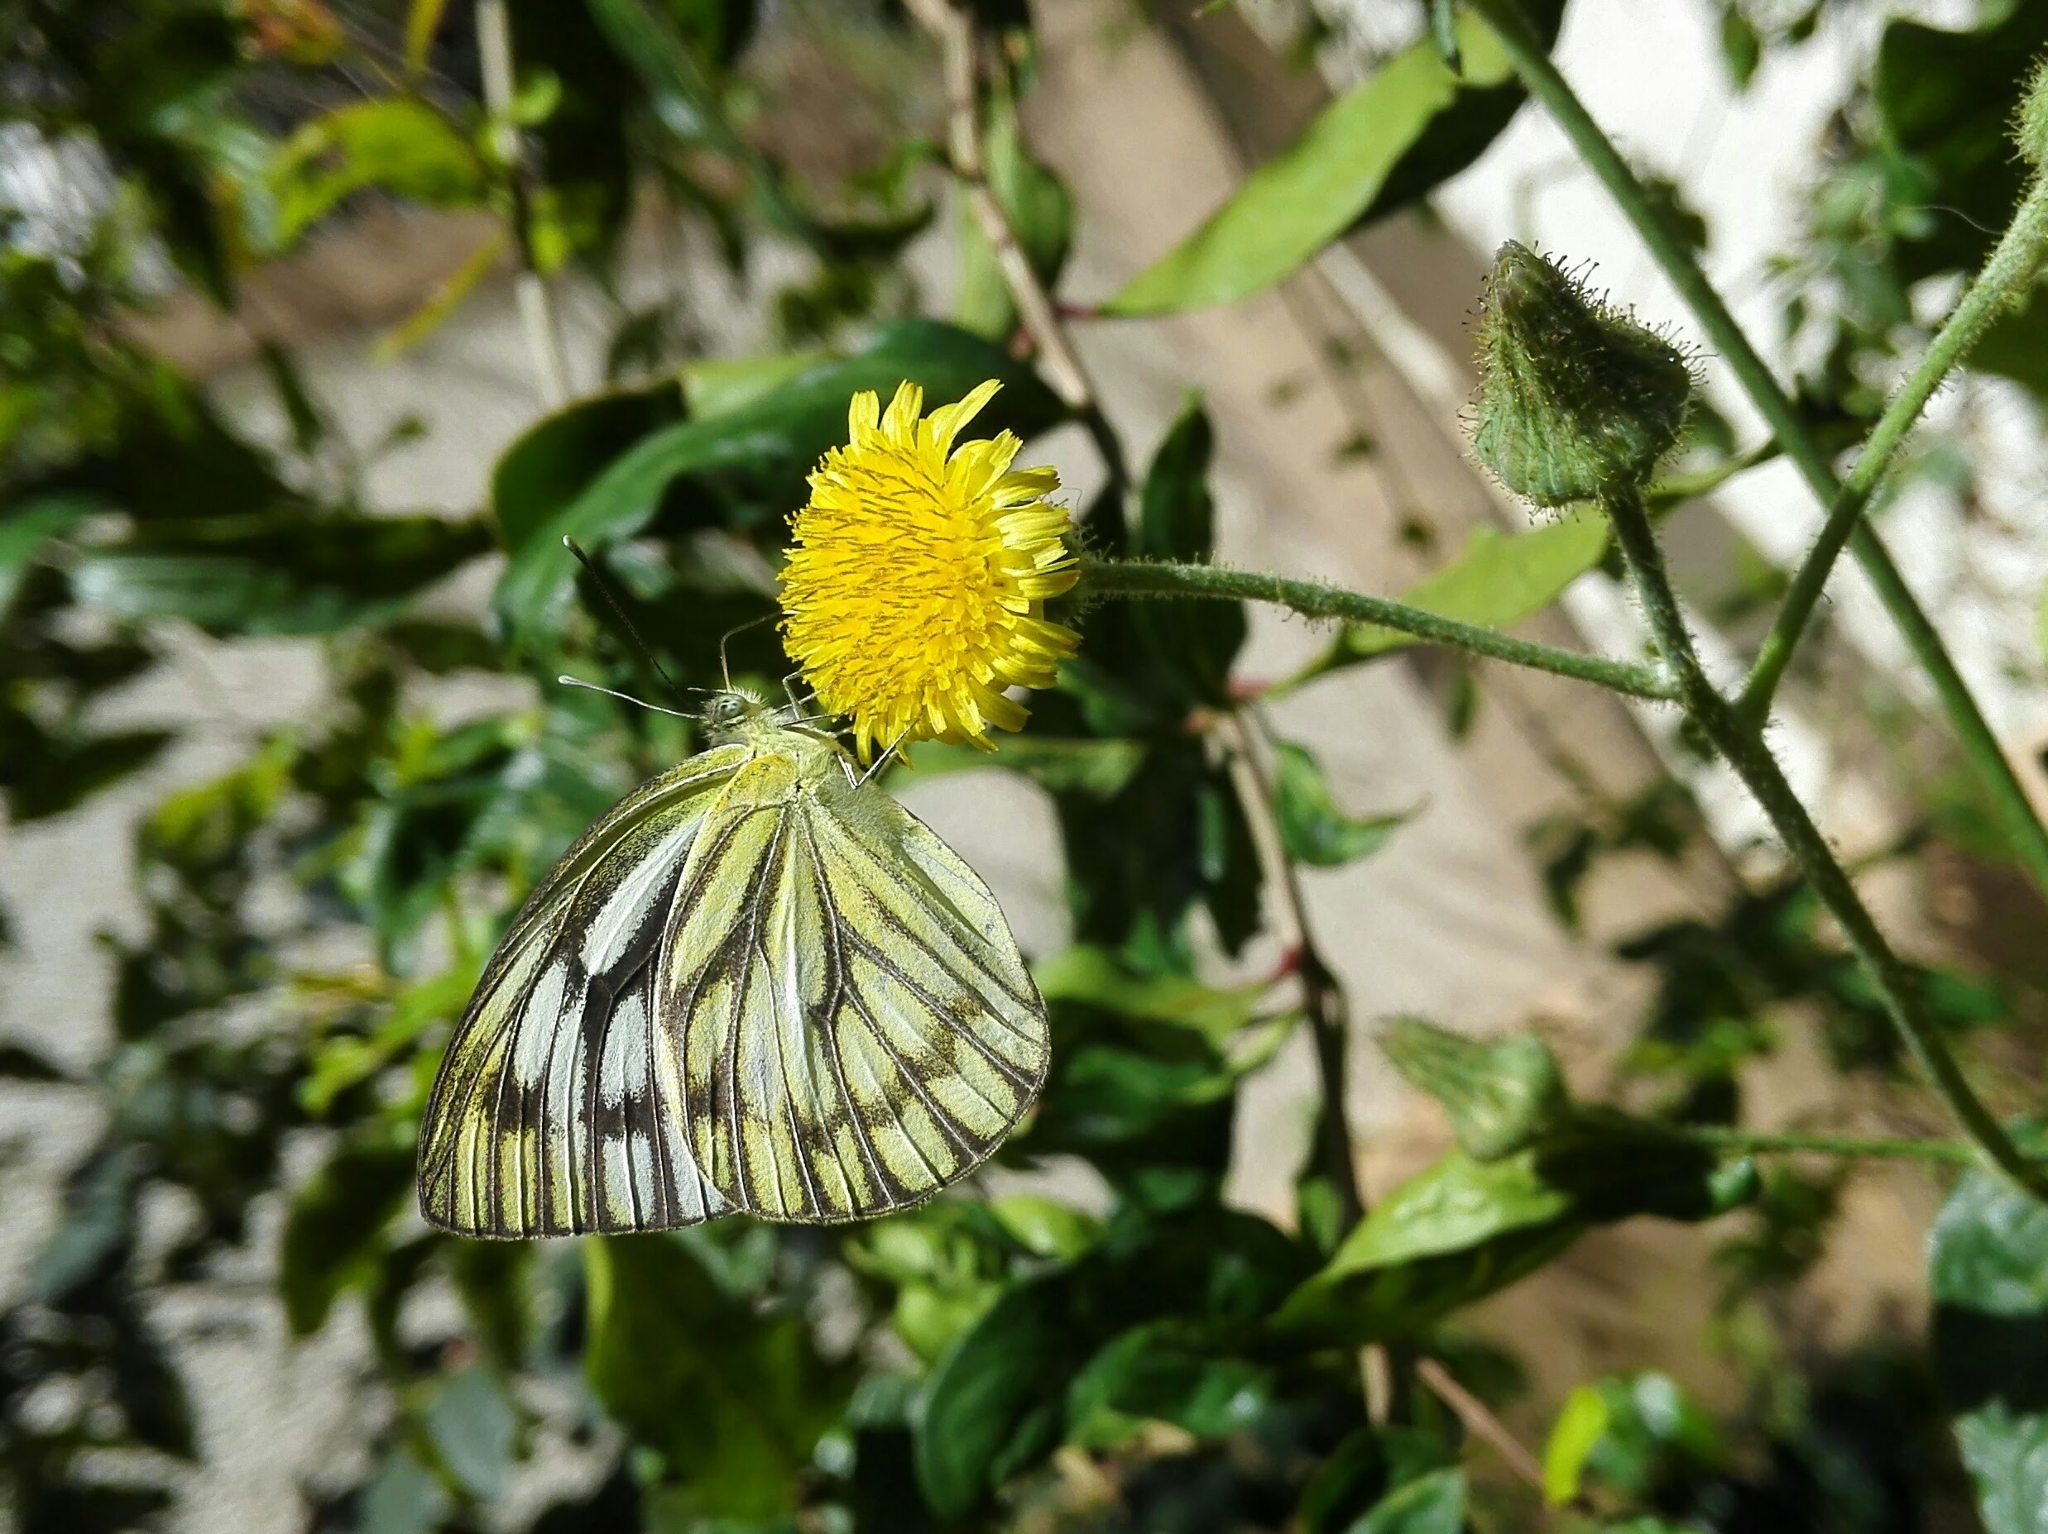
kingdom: Animalia
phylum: Arthropoda
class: Insecta
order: Lepidoptera
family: Pieridae
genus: Cepora
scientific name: Cepora nerissa
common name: Common gull
